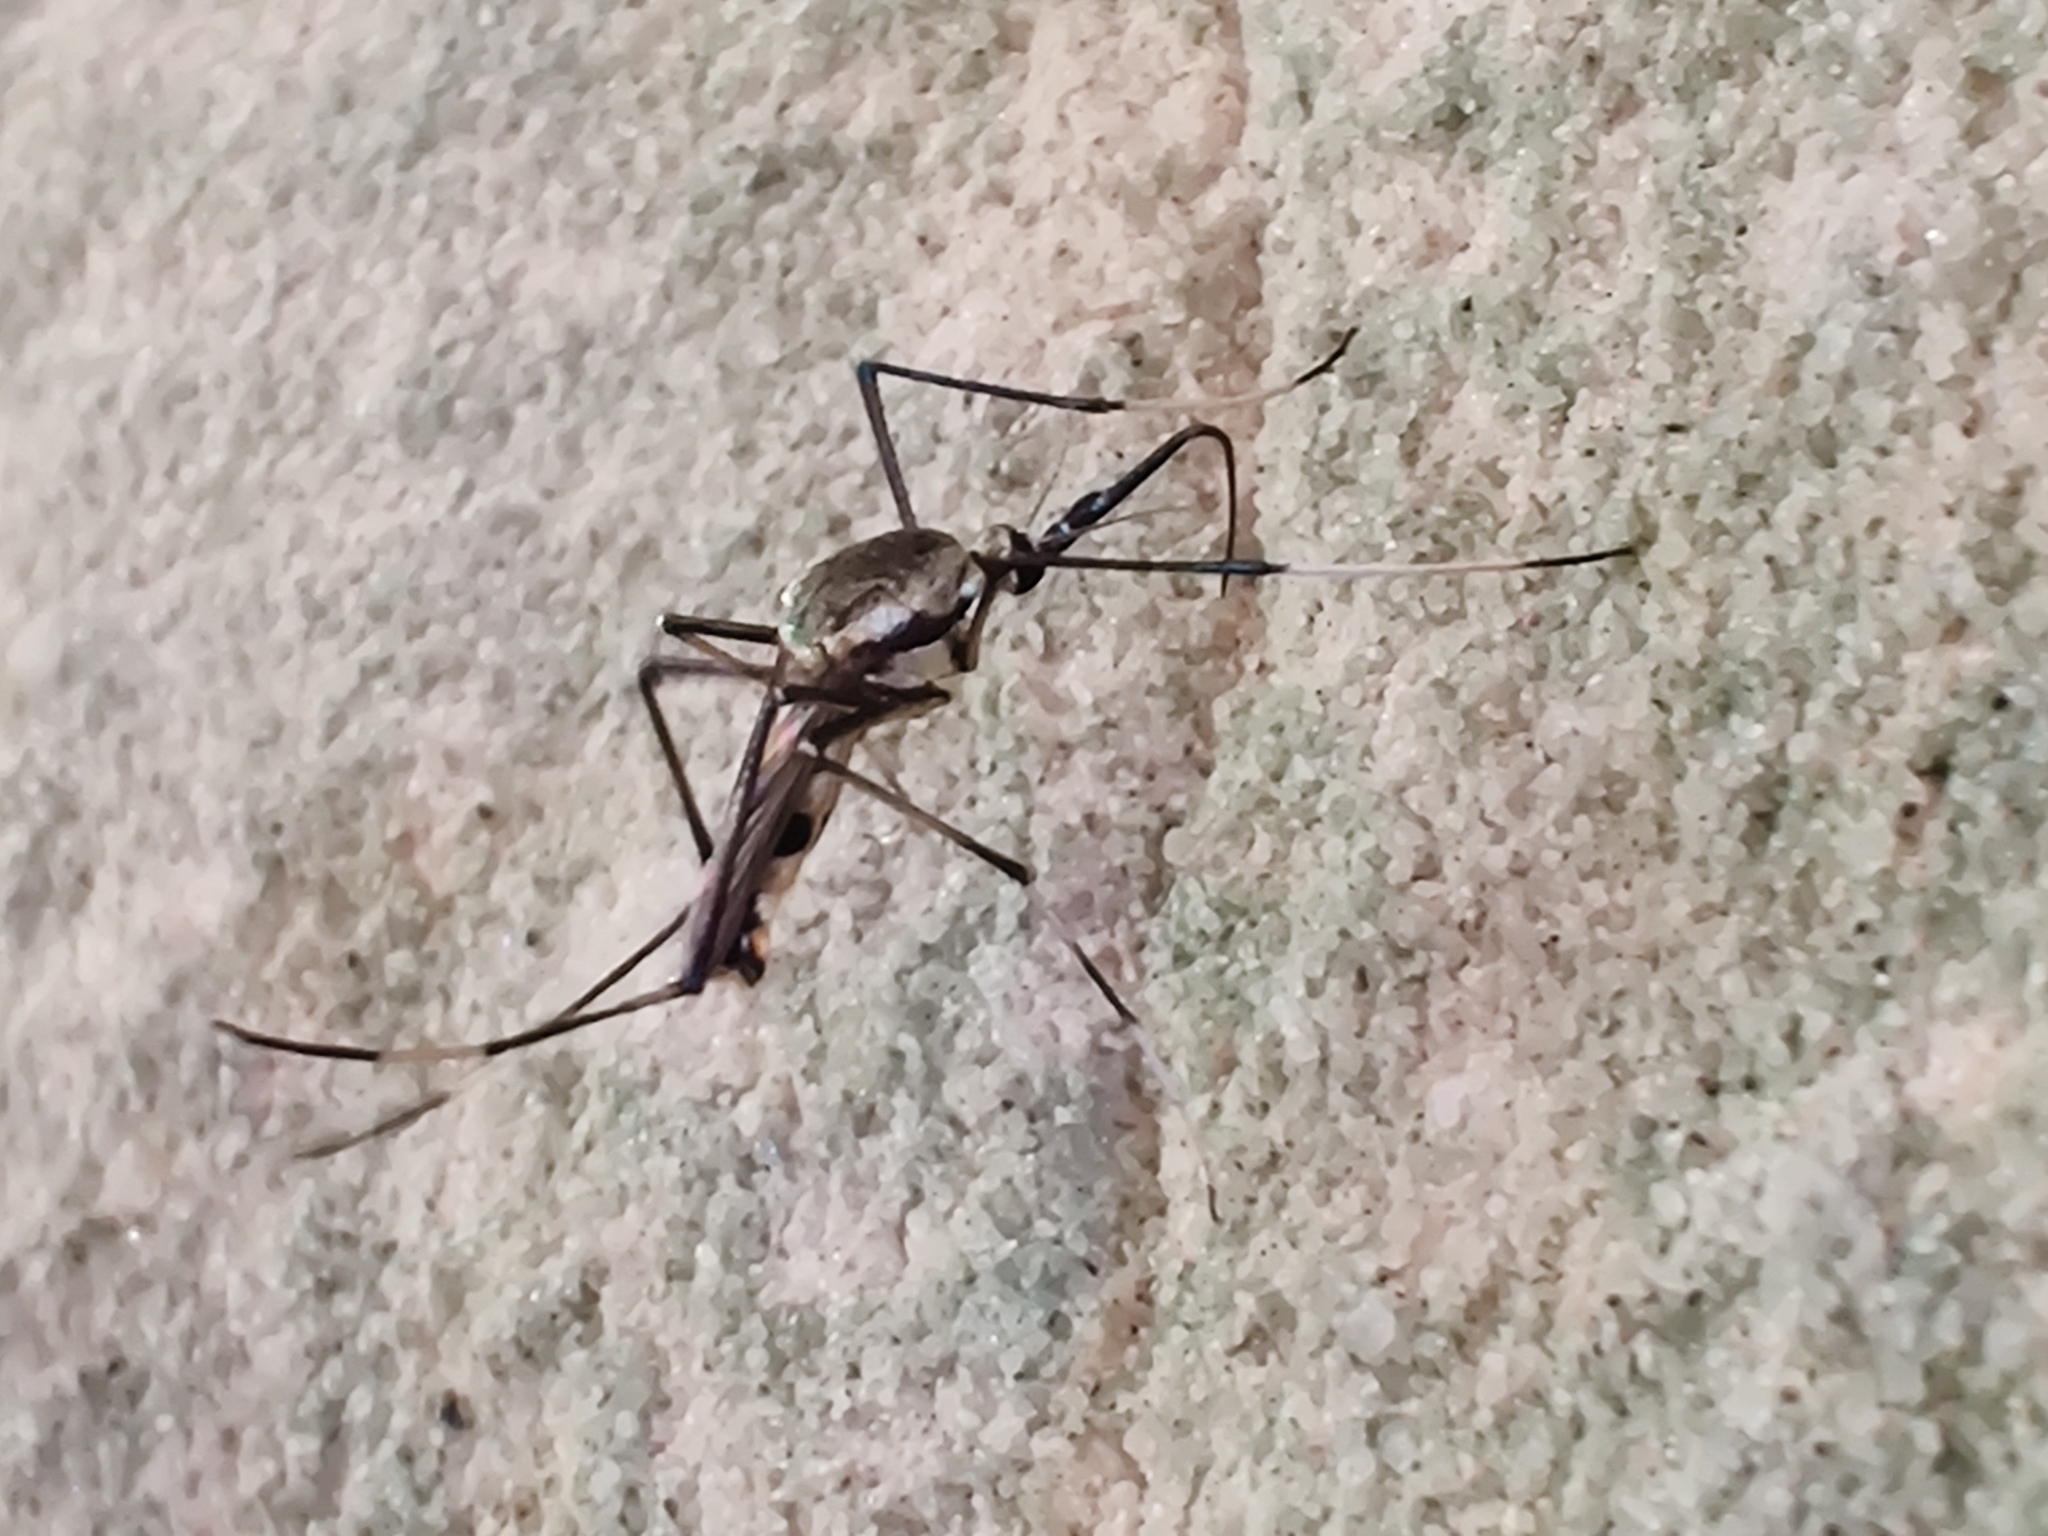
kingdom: Animalia
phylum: Arthropoda
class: Insecta
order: Diptera
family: Culicidae
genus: Toxorhynchites
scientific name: Toxorhynchites speciosus
